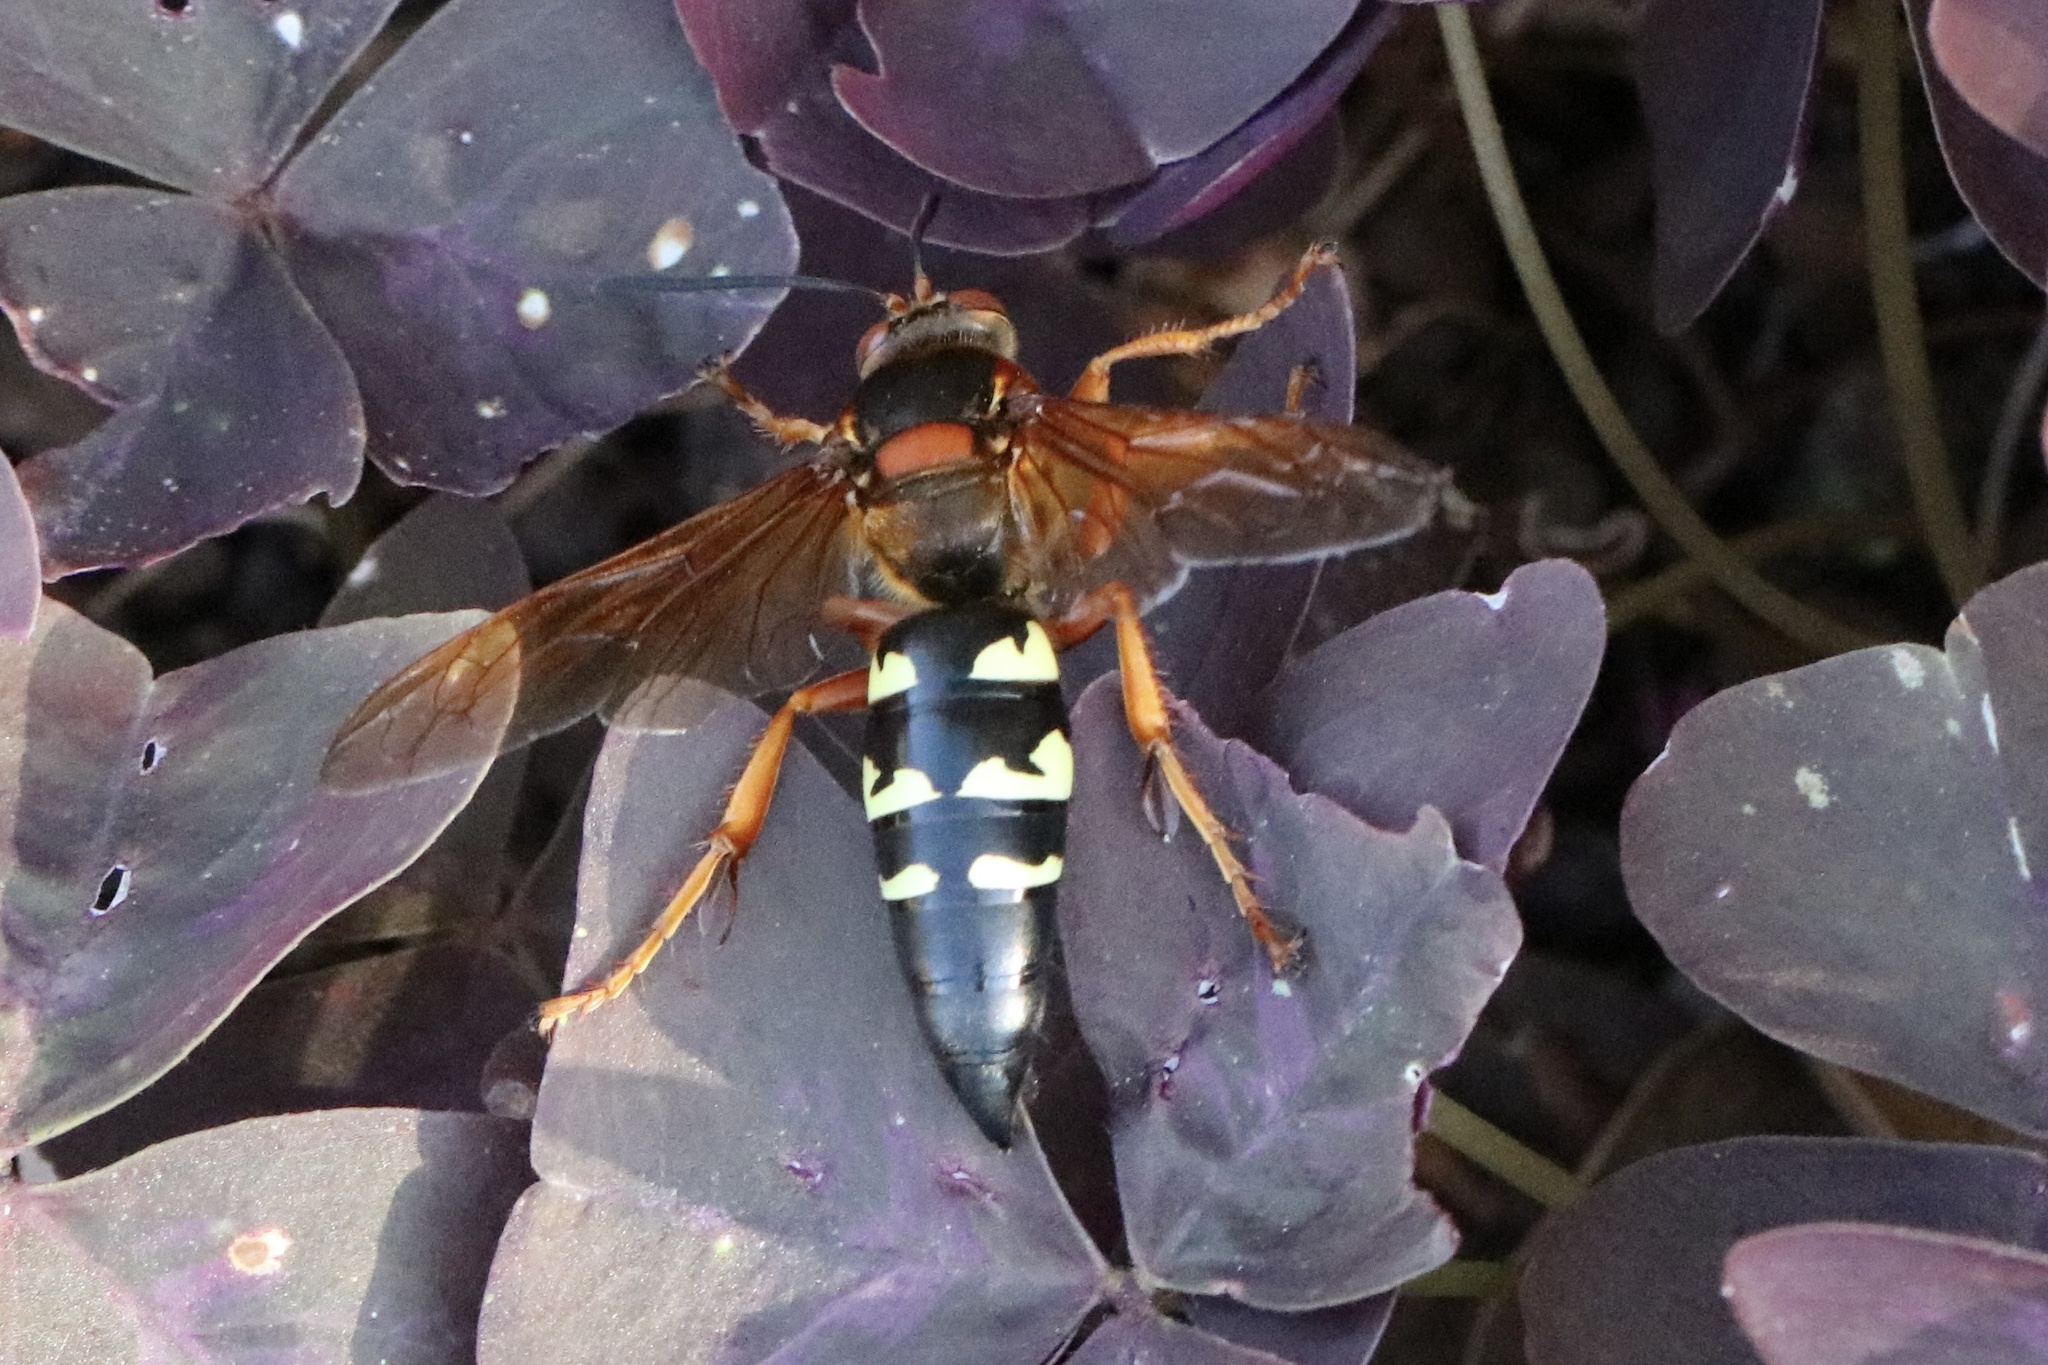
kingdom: Animalia
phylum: Arthropoda
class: Insecta
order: Hymenoptera
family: Crabronidae
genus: Sphecius
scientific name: Sphecius speciosus
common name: Cicada killer
